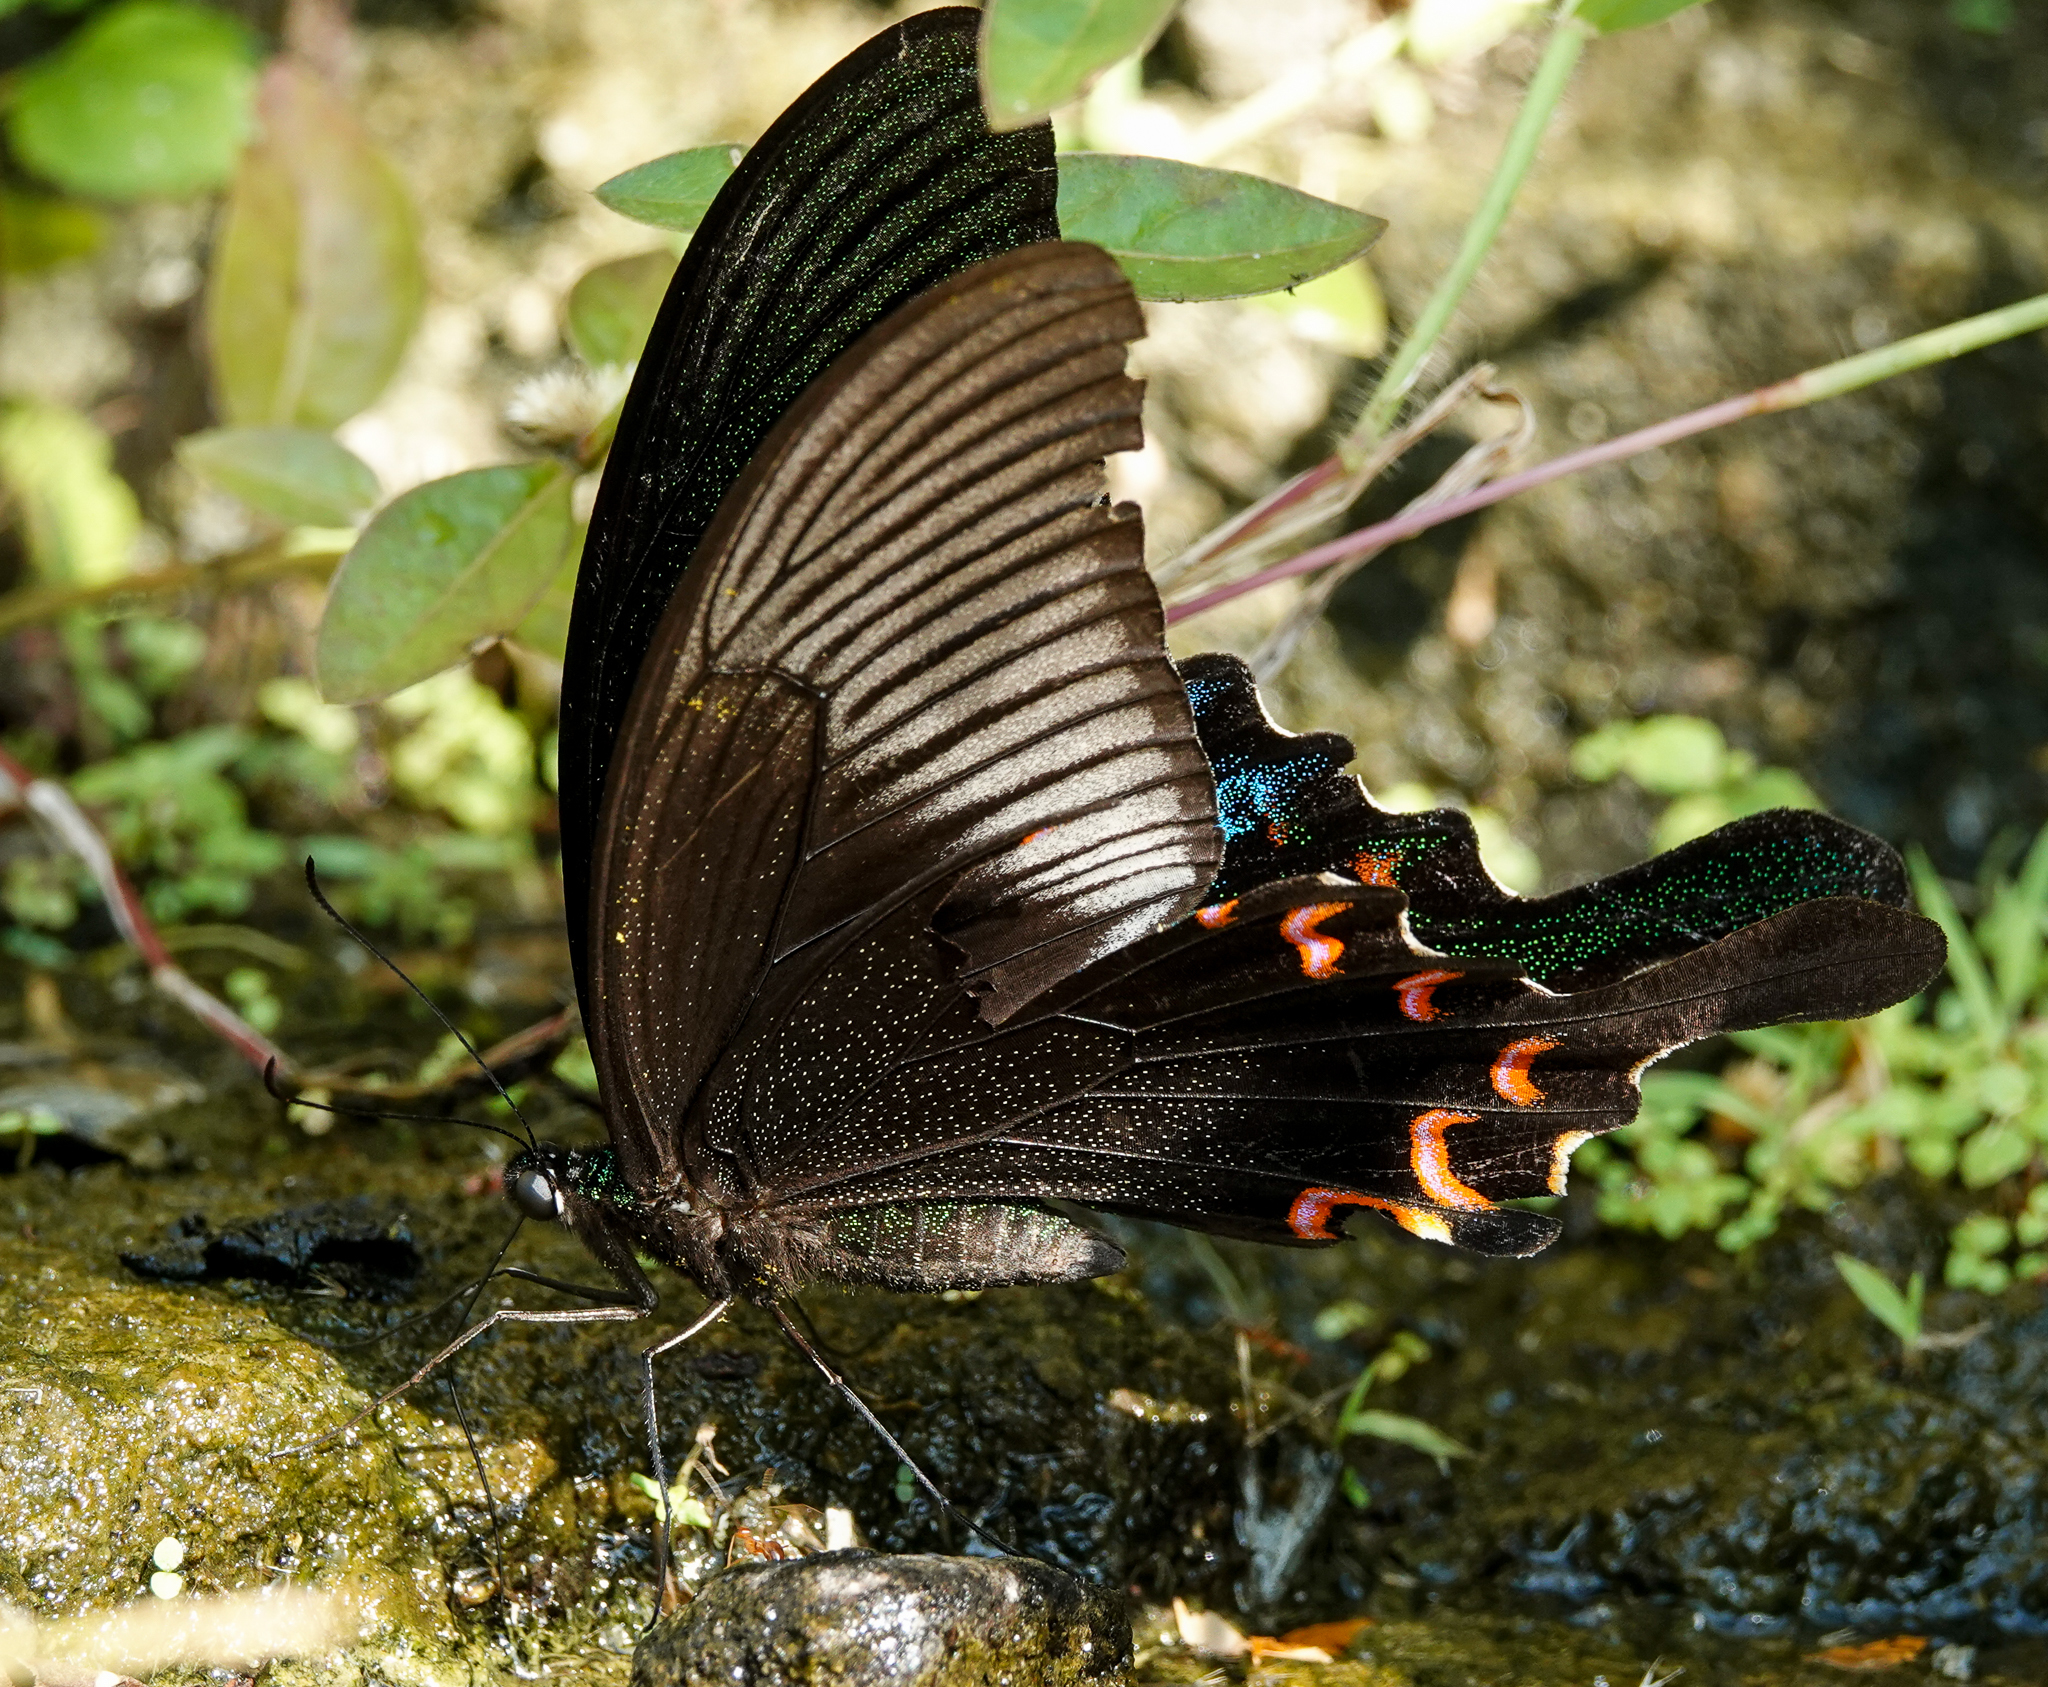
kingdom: Animalia
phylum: Arthropoda
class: Insecta
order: Lepidoptera
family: Papilionidae
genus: Papilio
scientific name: Papilio paris
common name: Paris peacock
